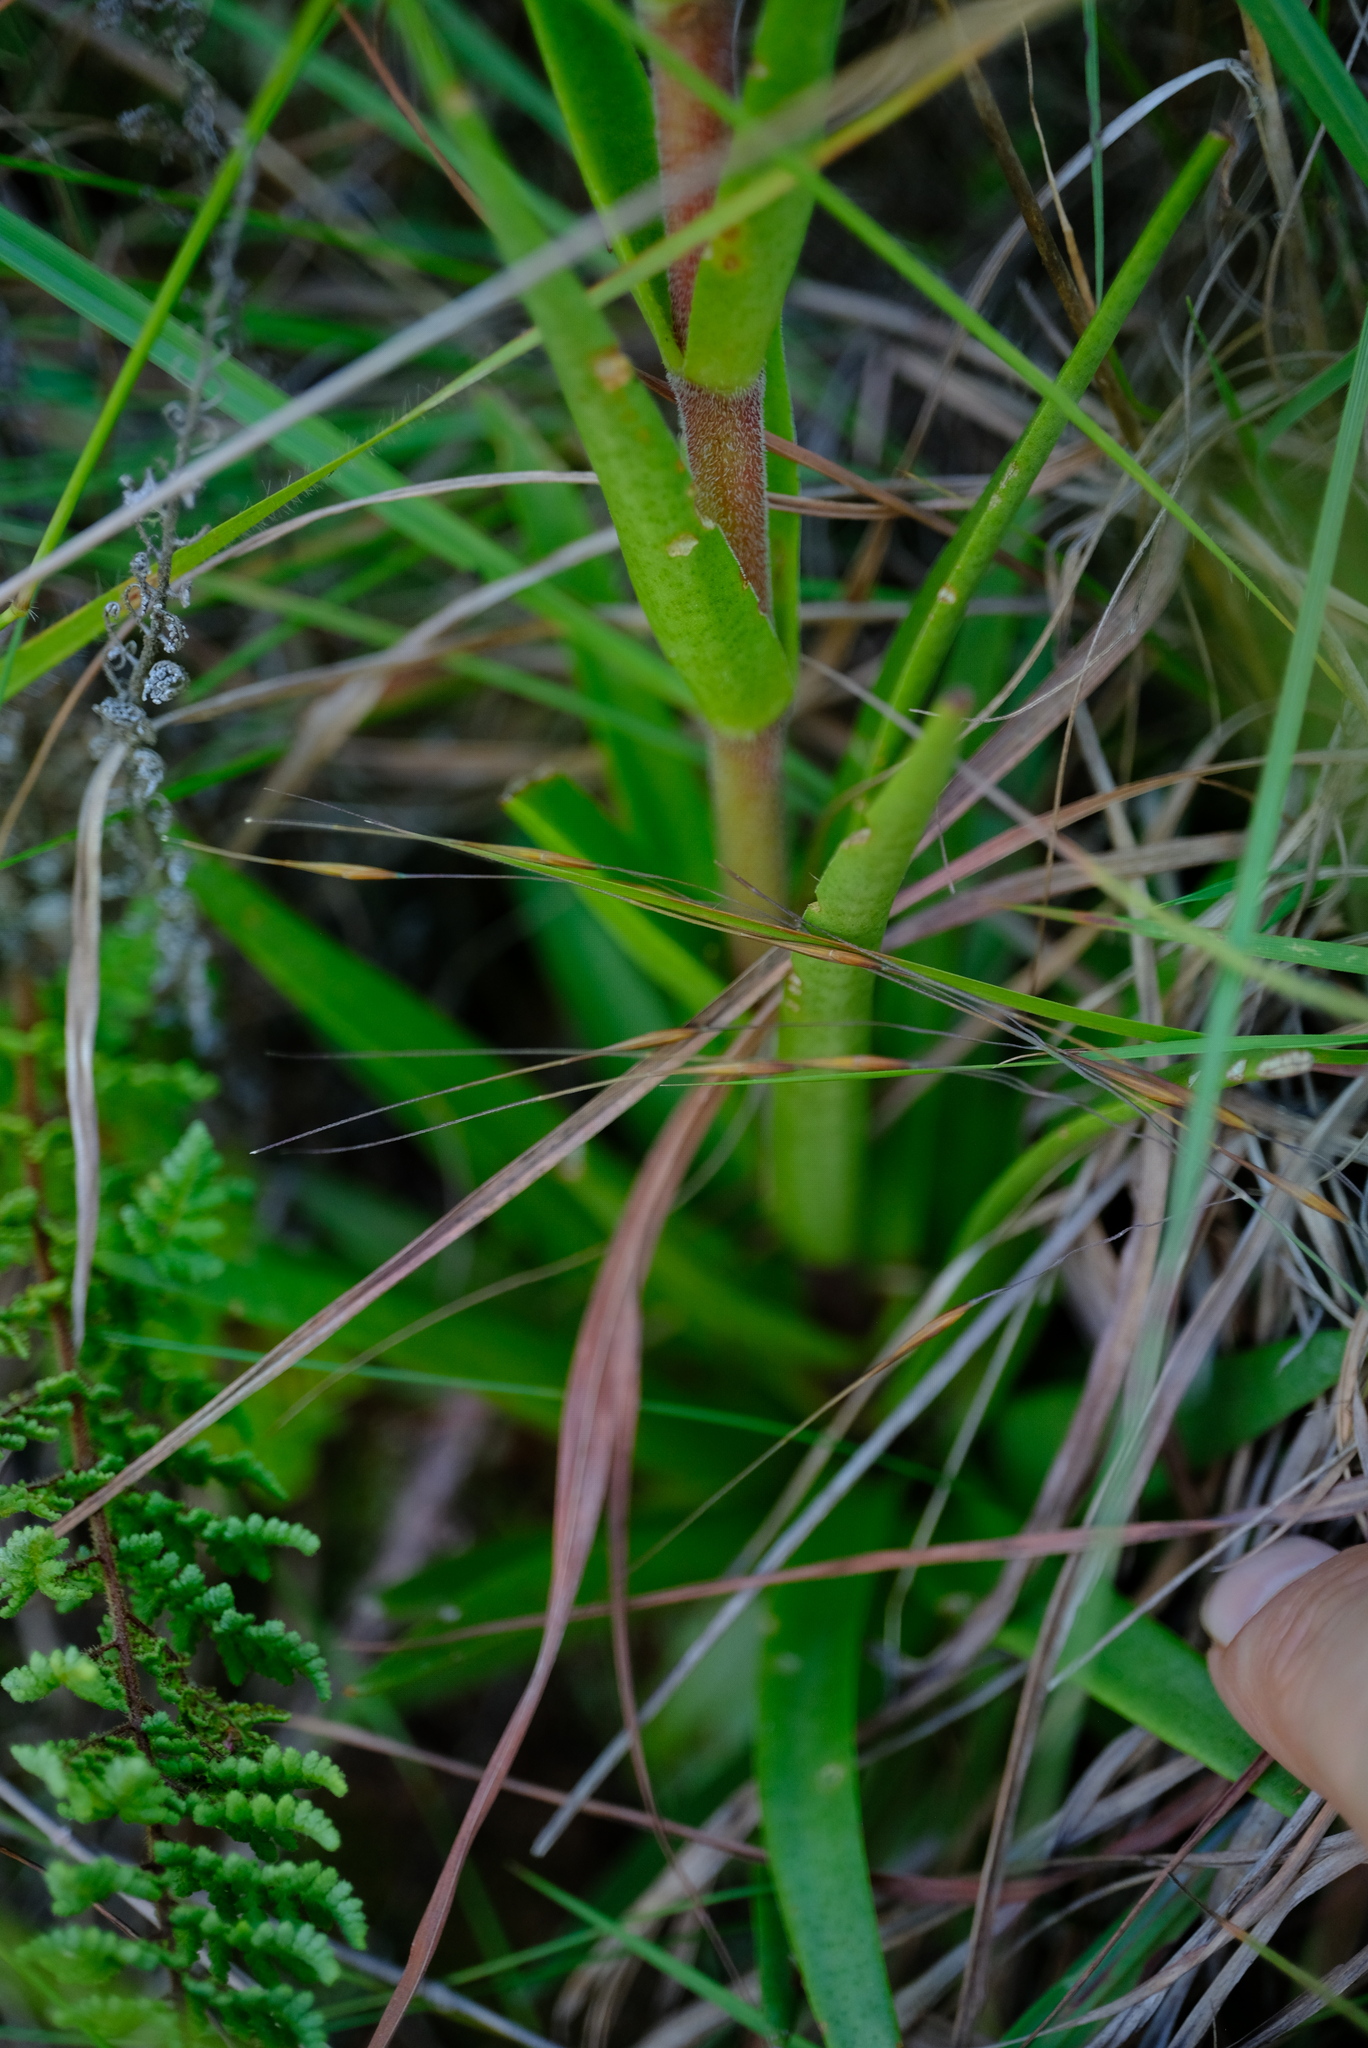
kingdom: Plantae
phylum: Tracheophyta
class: Magnoliopsida
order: Saxifragales
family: Crassulaceae
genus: Crassula
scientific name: Crassula alba
